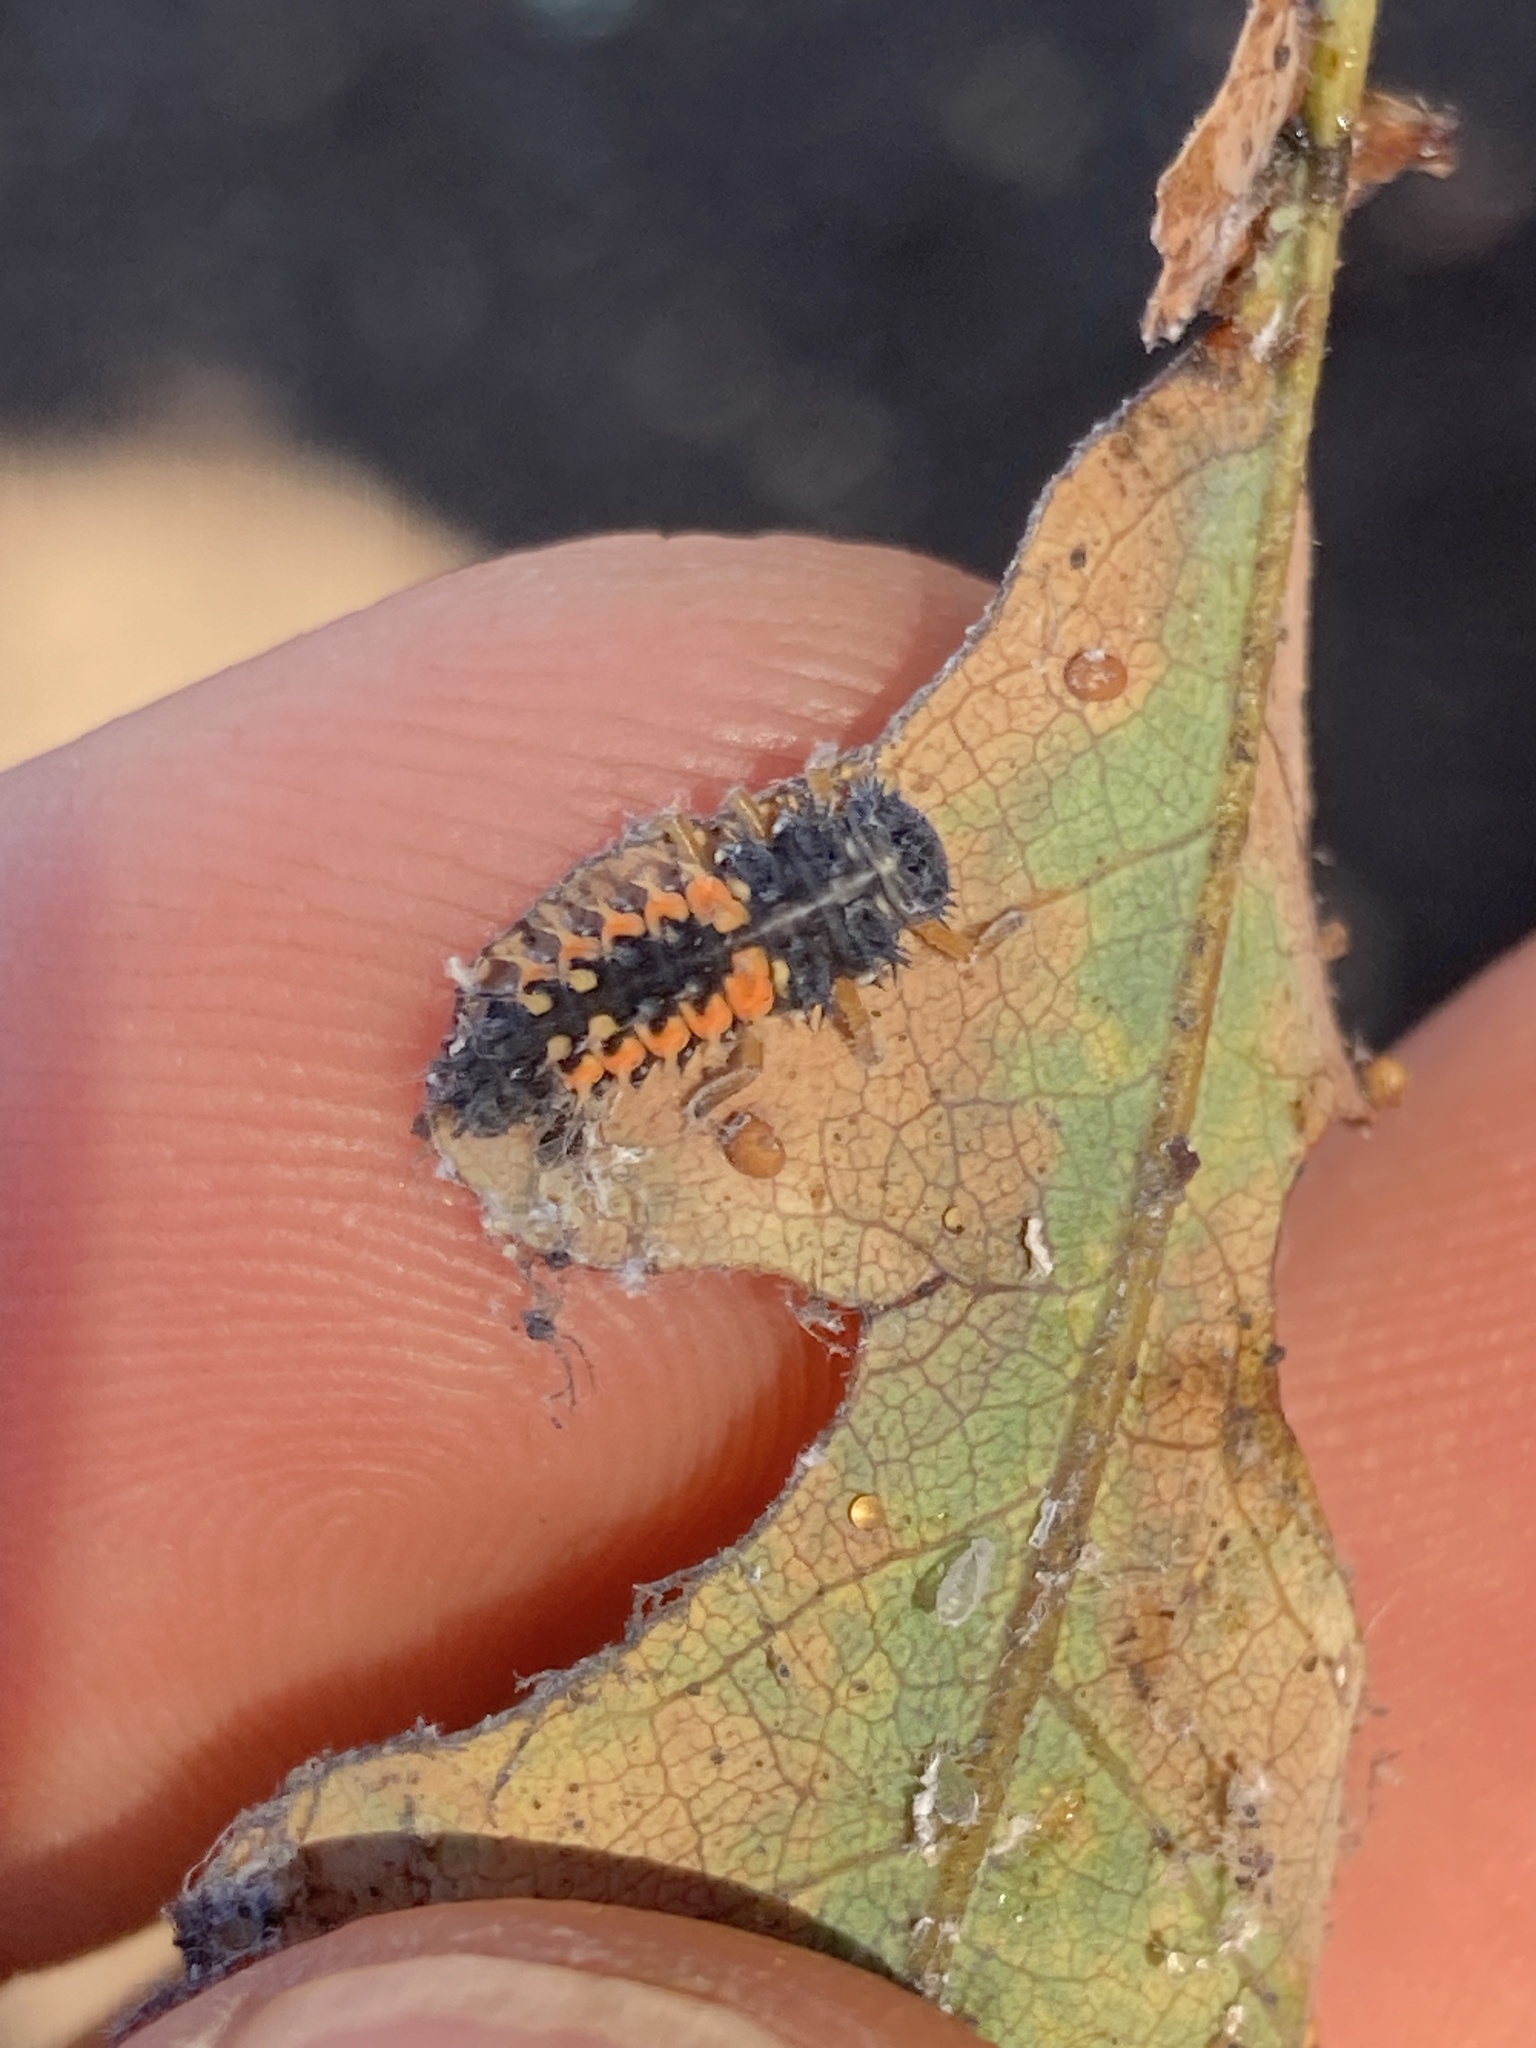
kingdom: Animalia
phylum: Arthropoda
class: Insecta
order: Coleoptera
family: Coccinellidae
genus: Harmonia
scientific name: Harmonia axyridis
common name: Harlequin ladybird
